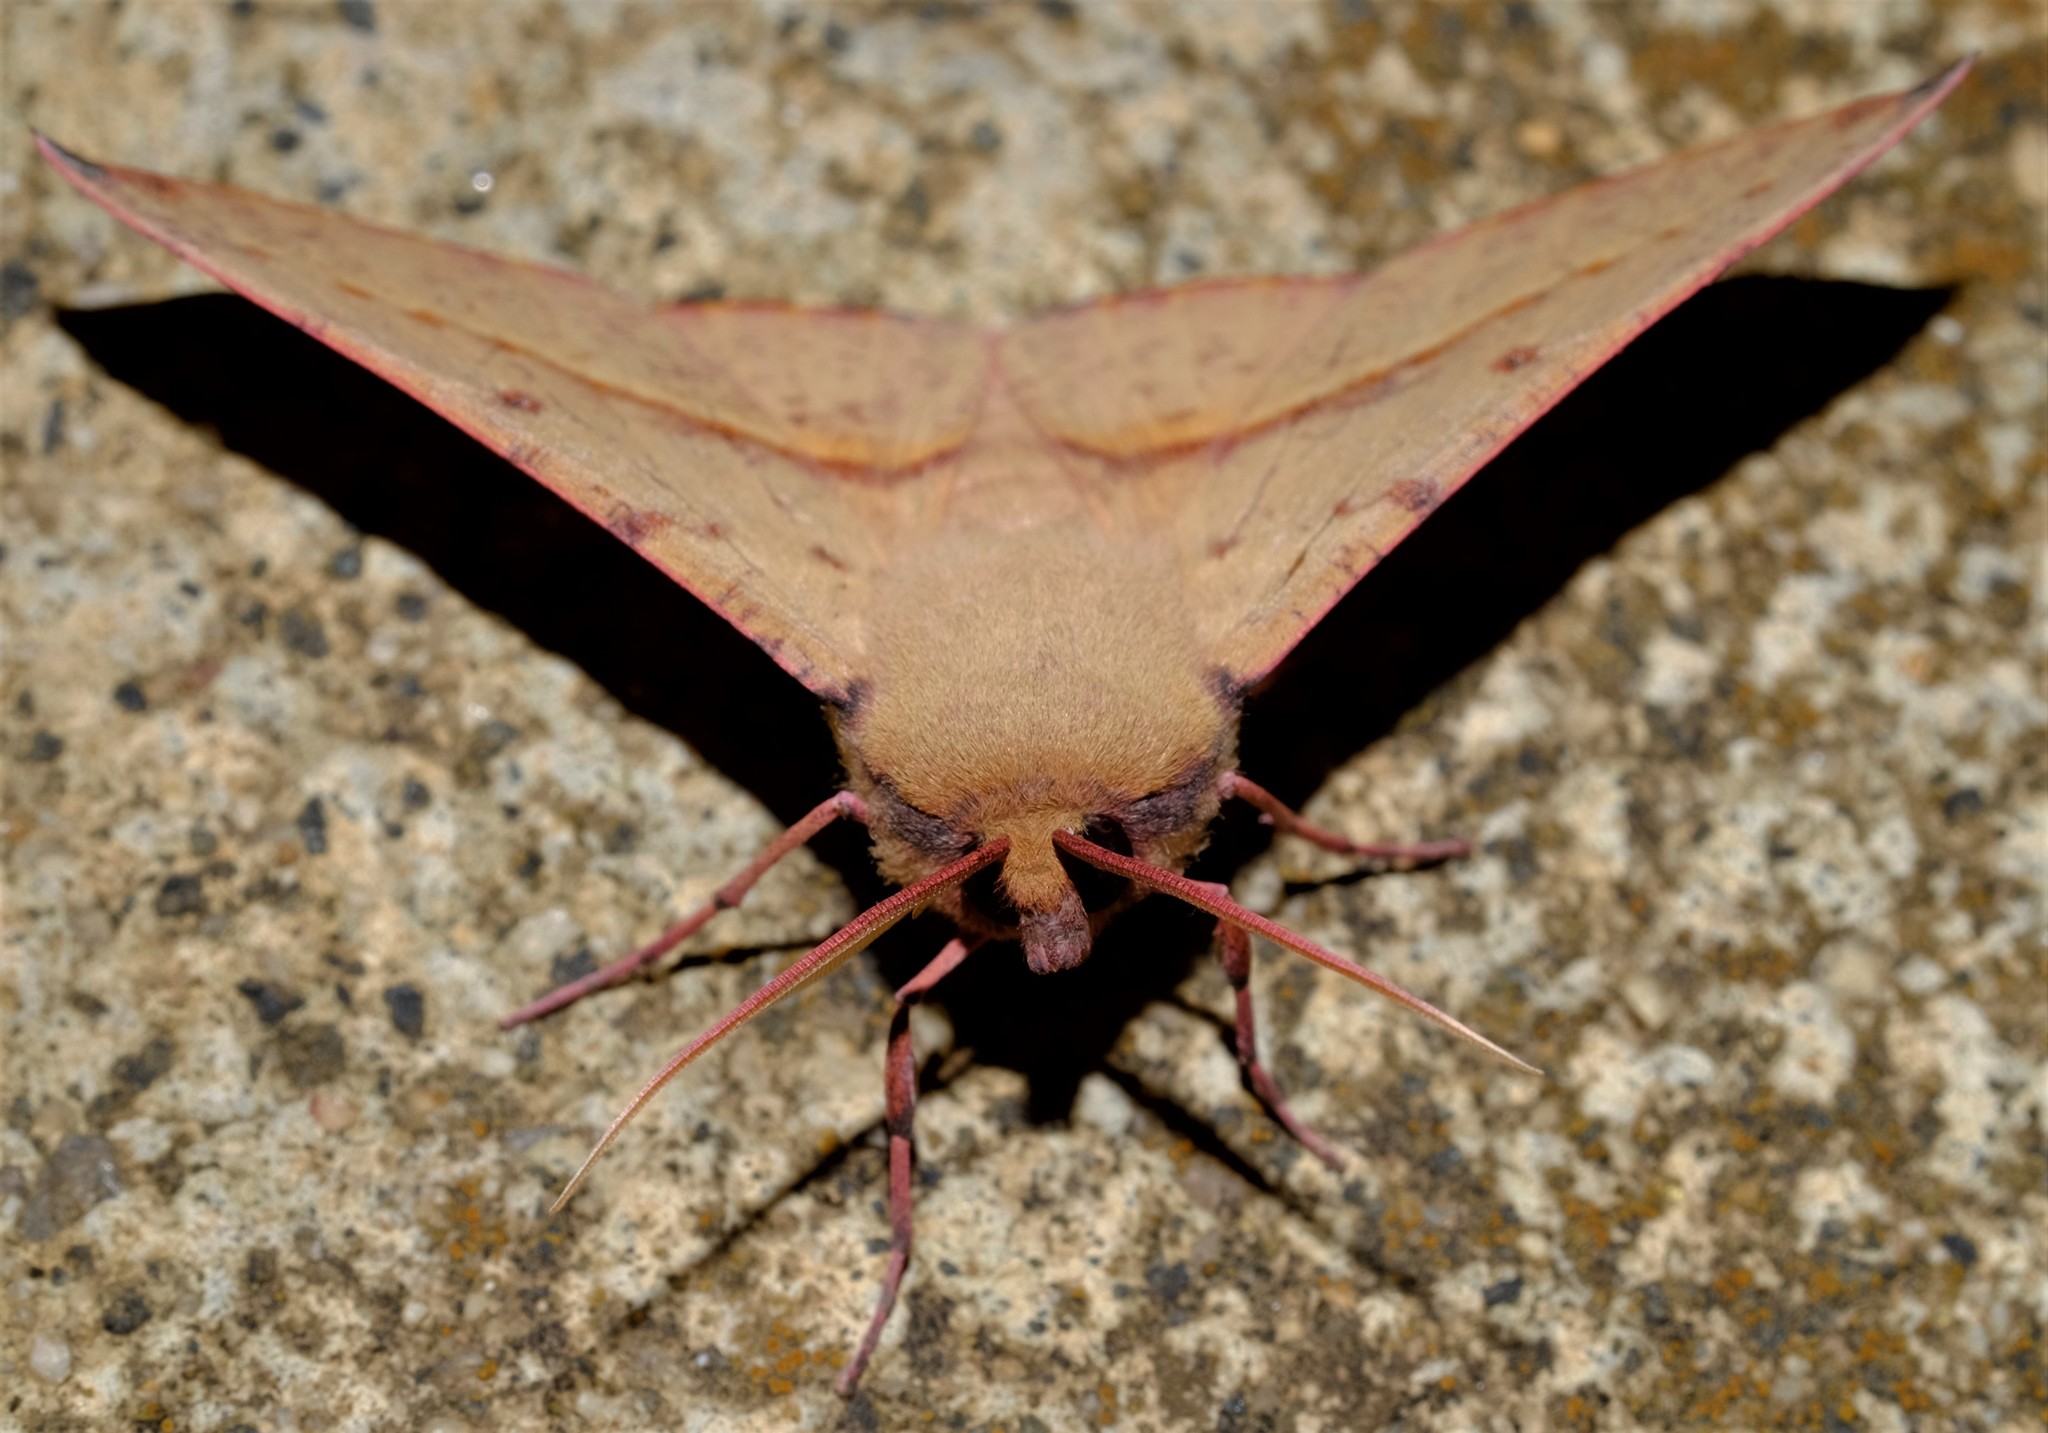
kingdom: Animalia
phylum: Arthropoda
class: Insecta
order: Lepidoptera
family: Geometridae
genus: Oenochroma
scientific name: Oenochroma vinaria
